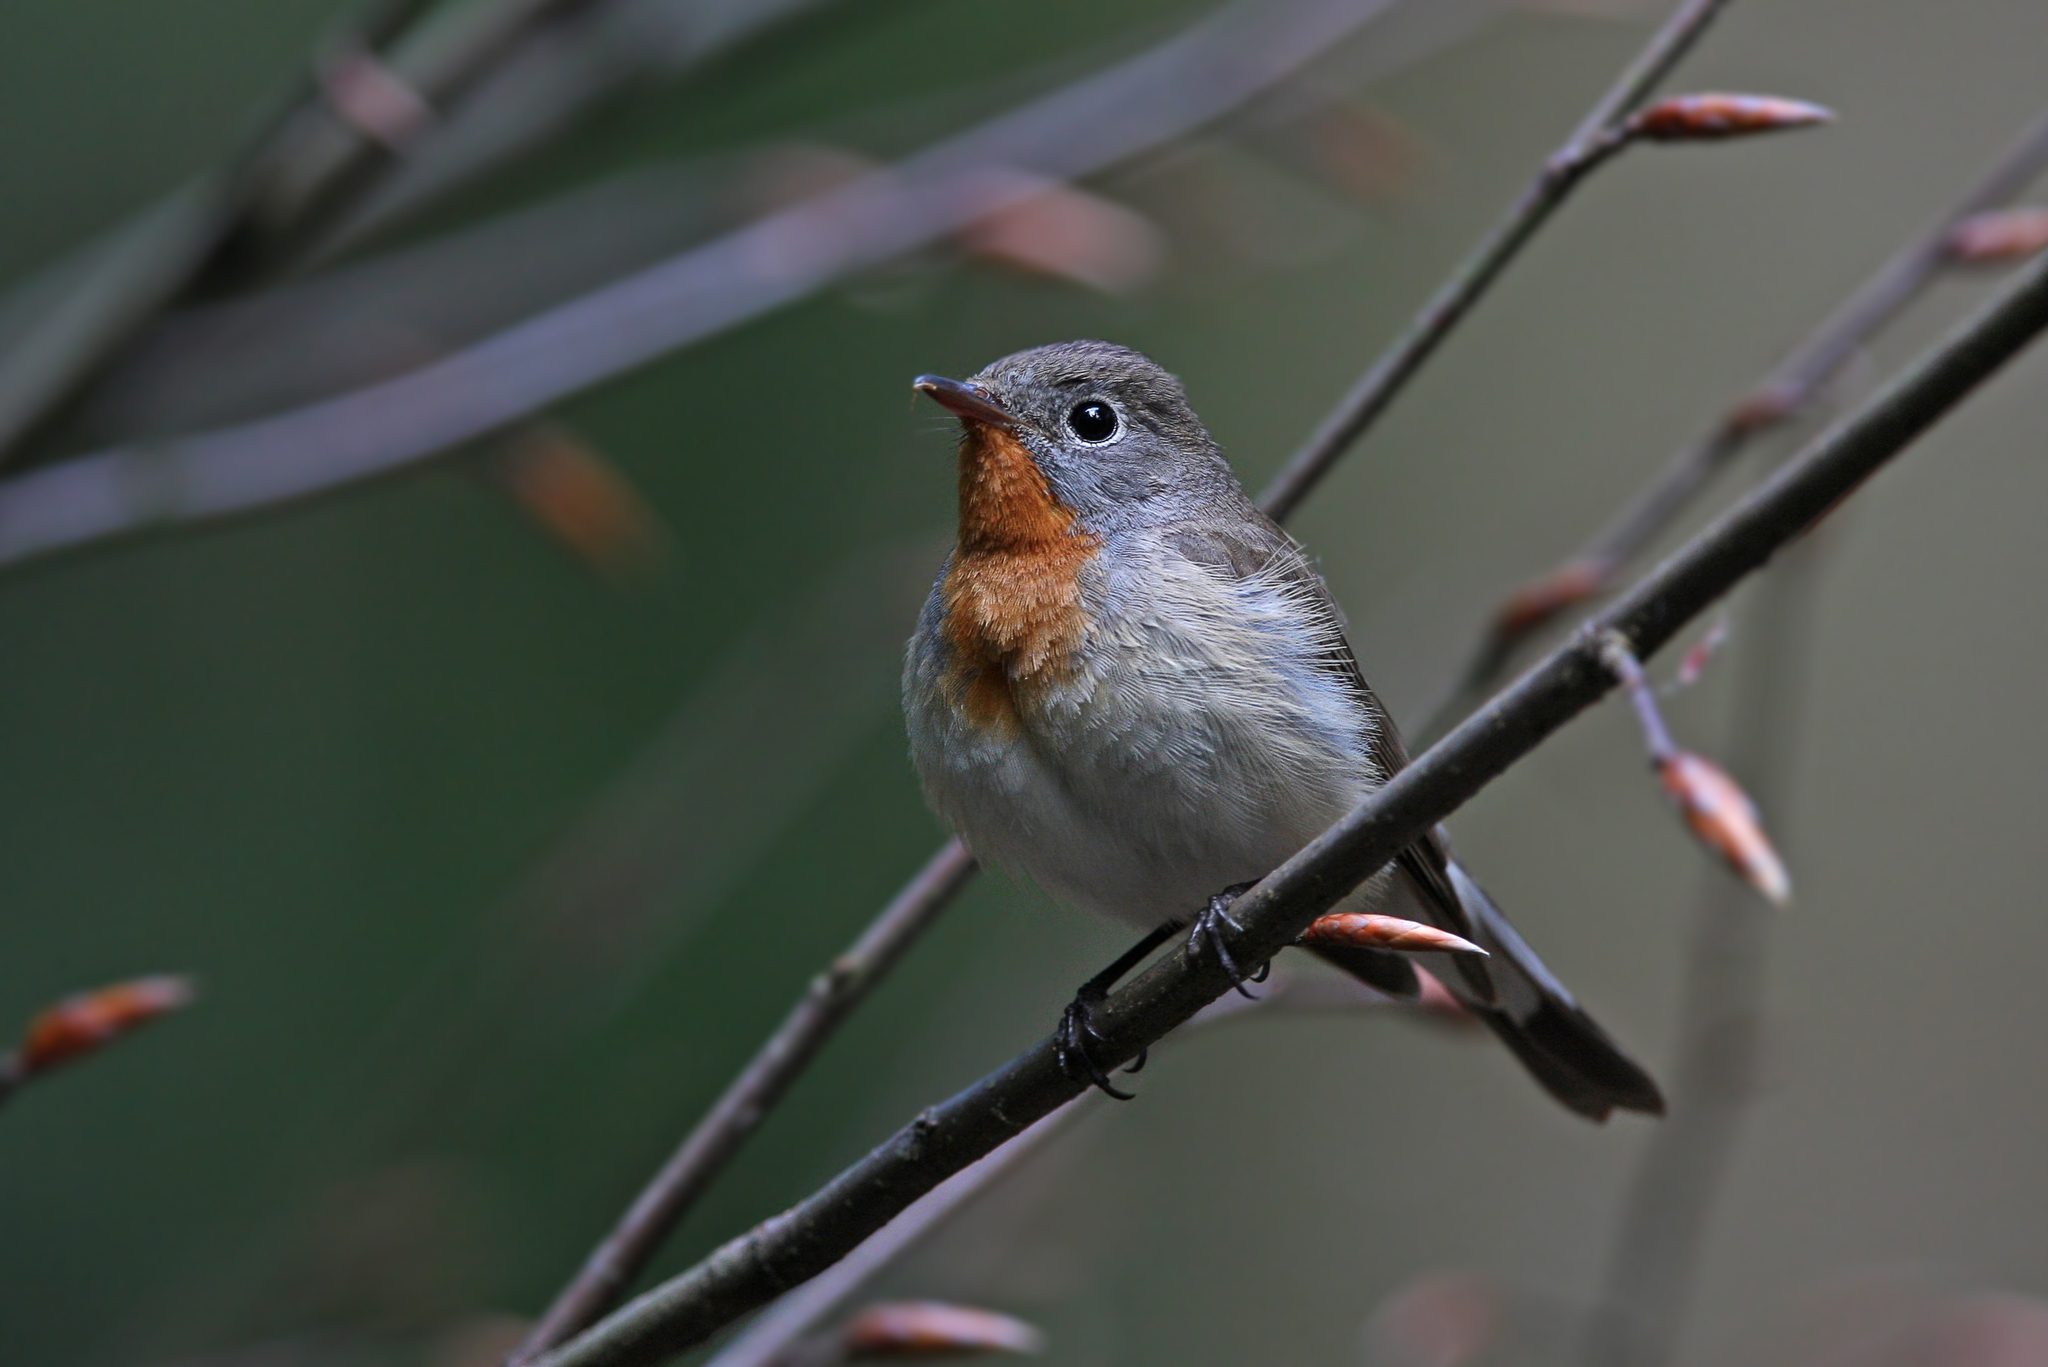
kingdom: Animalia
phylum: Chordata
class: Aves
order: Passeriformes
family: Muscicapidae
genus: Ficedula
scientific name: Ficedula parva
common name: Red-breasted flycatcher
